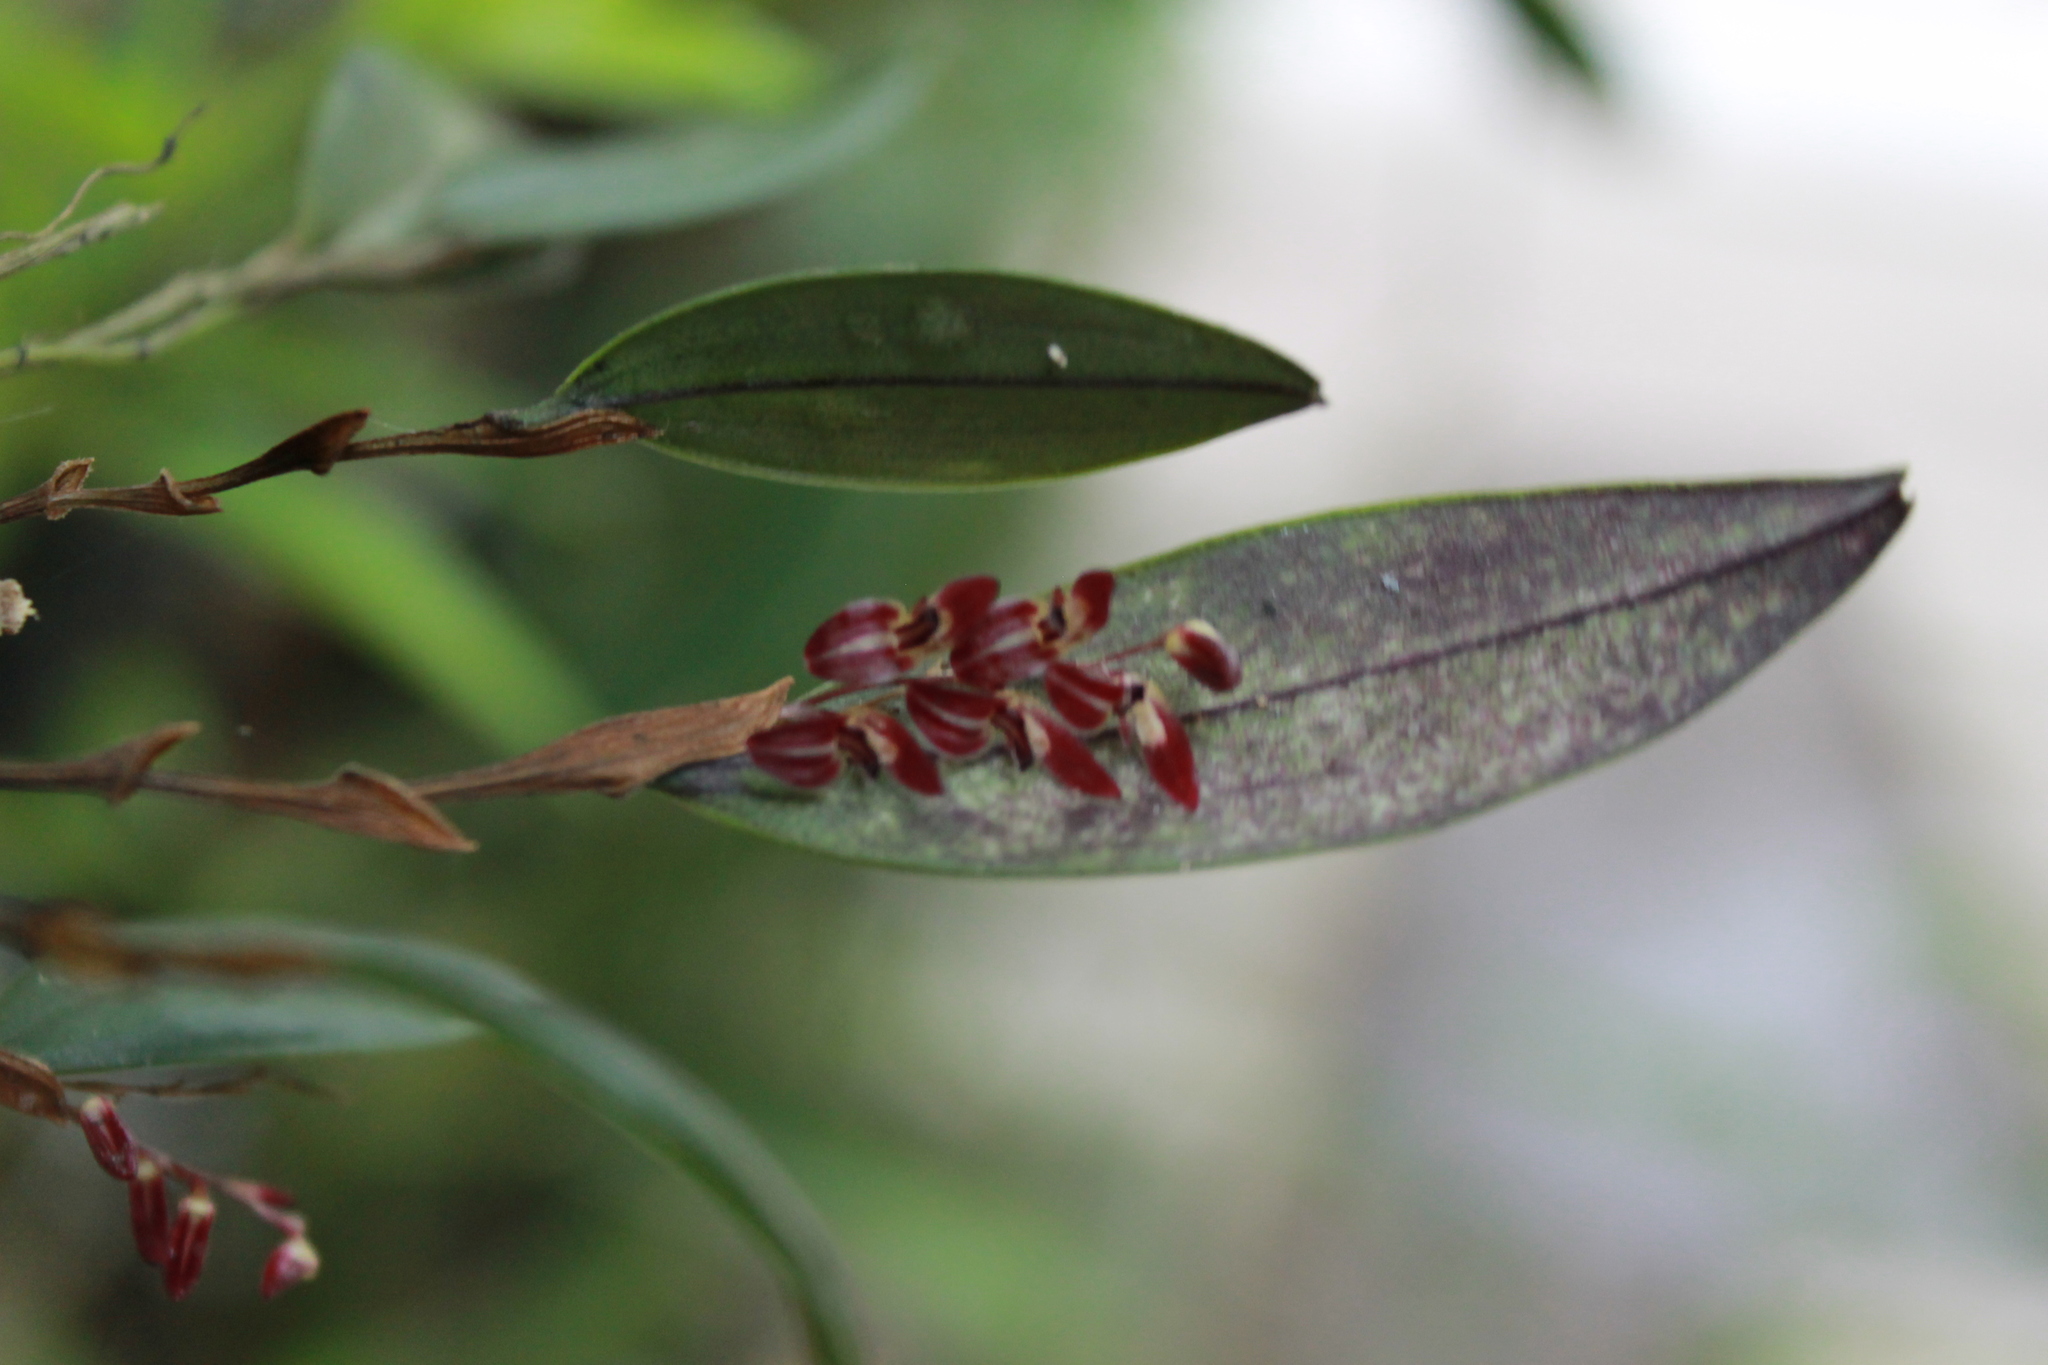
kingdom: Plantae
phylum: Tracheophyta
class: Liliopsida
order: Asparagales
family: Orchidaceae
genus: Trichosalpinx
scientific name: Trichosalpinx blaisdellii
